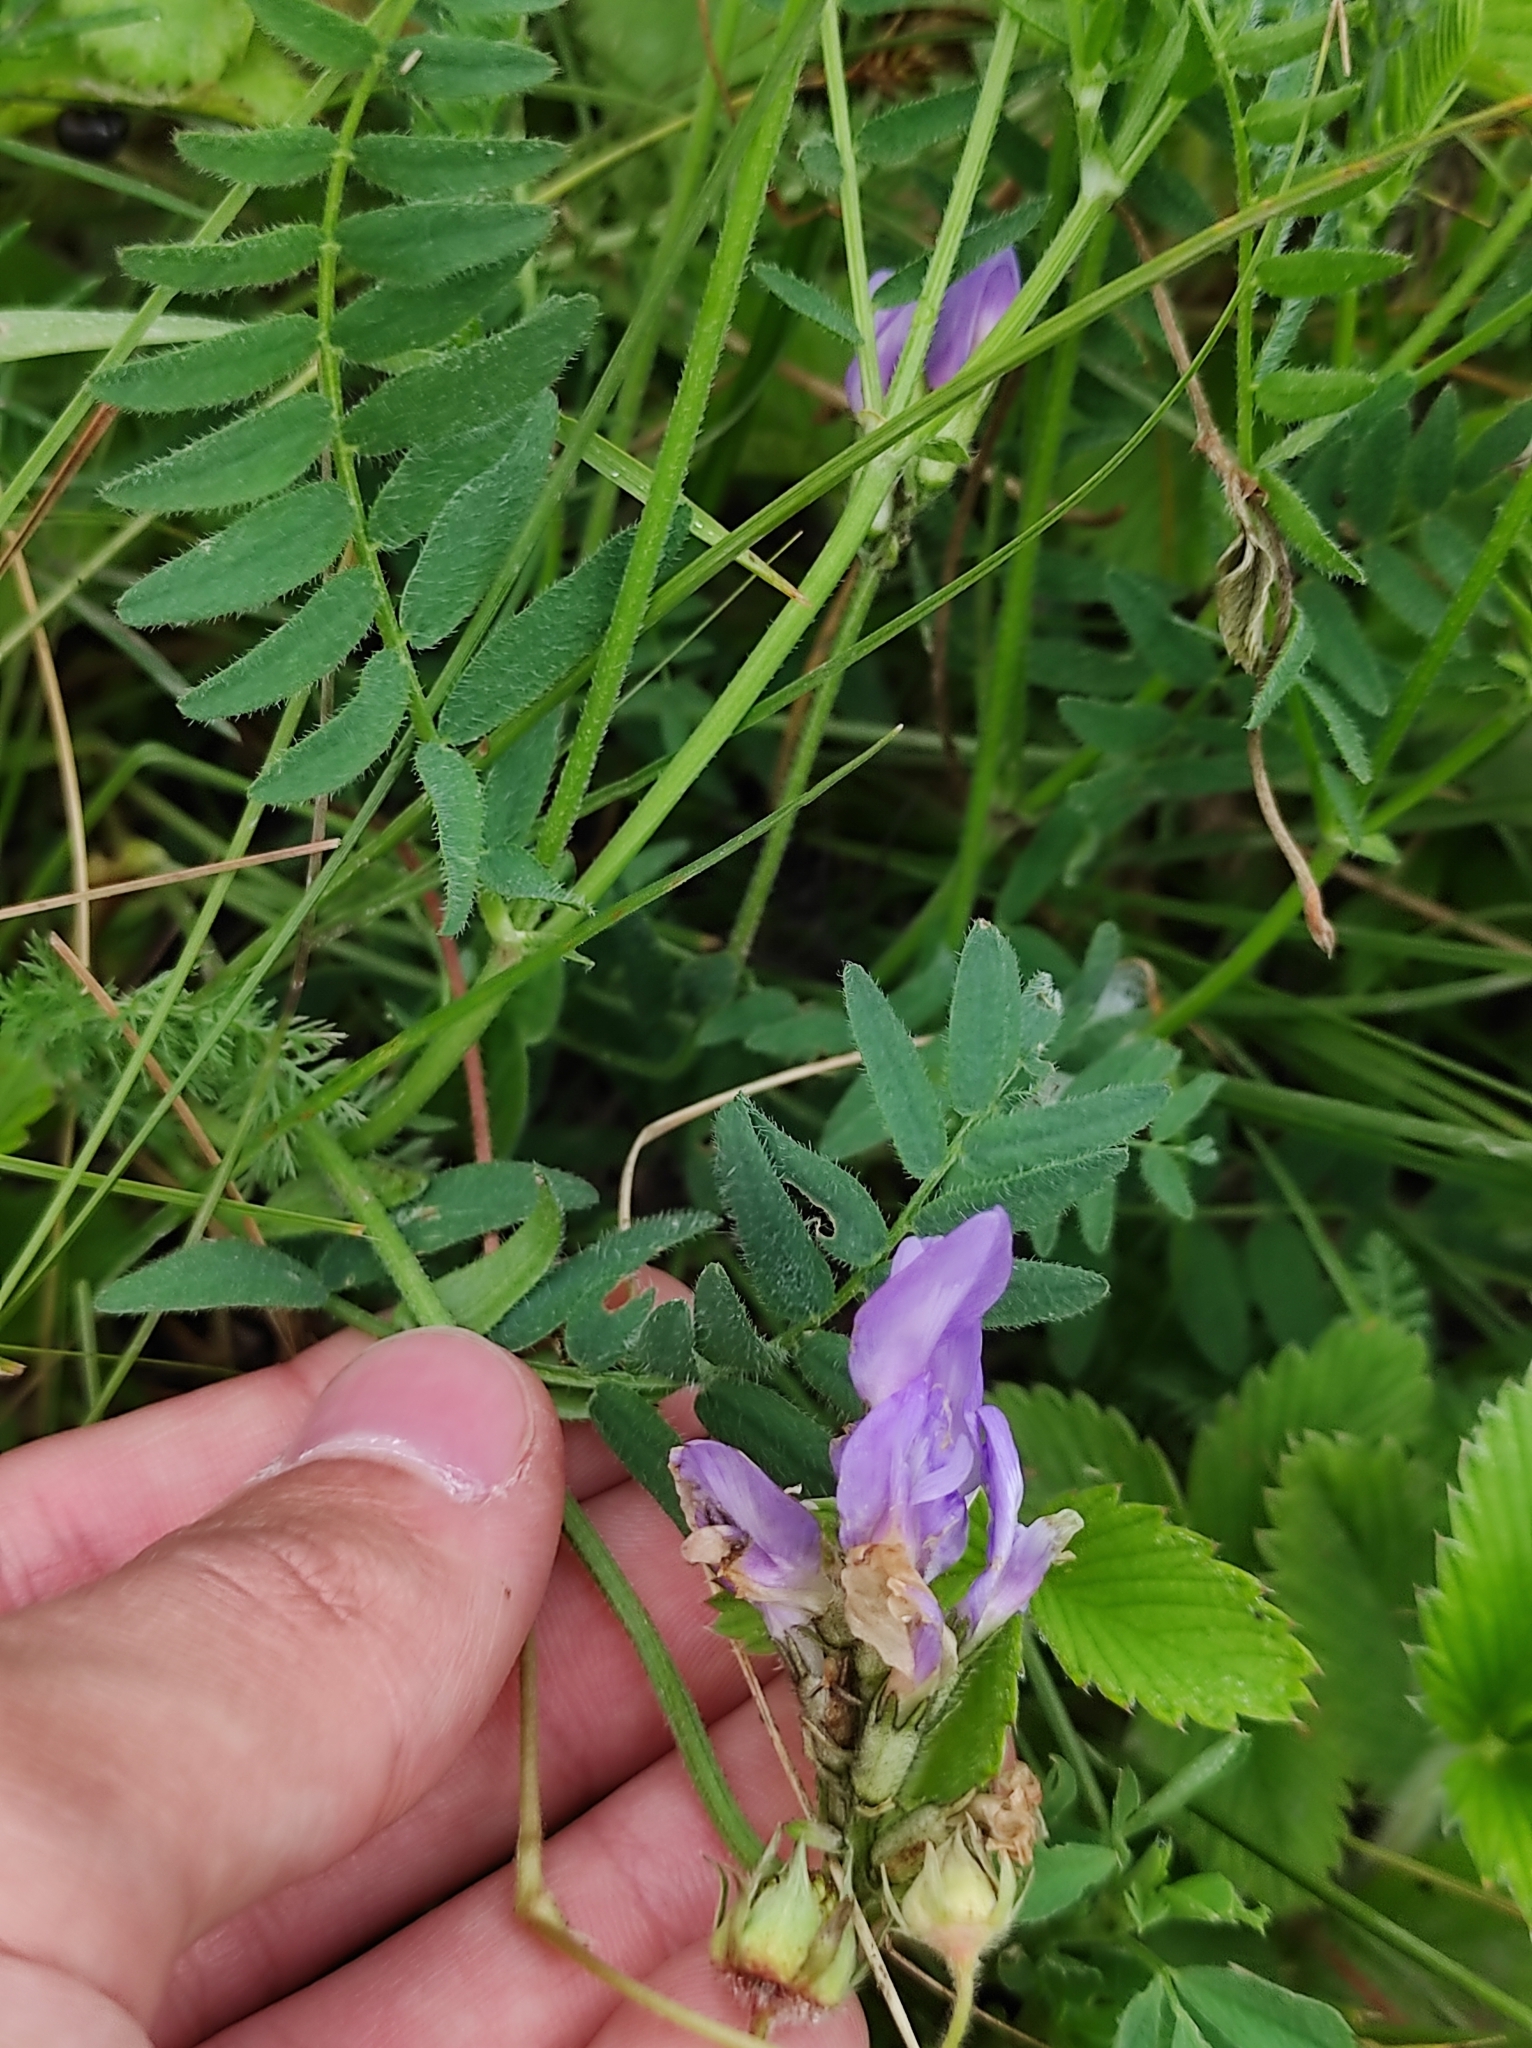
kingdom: Plantae
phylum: Tracheophyta
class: Magnoliopsida
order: Fabales
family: Fabaceae
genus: Astragalus
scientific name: Astragalus danicus
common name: Purple milk-vetch
